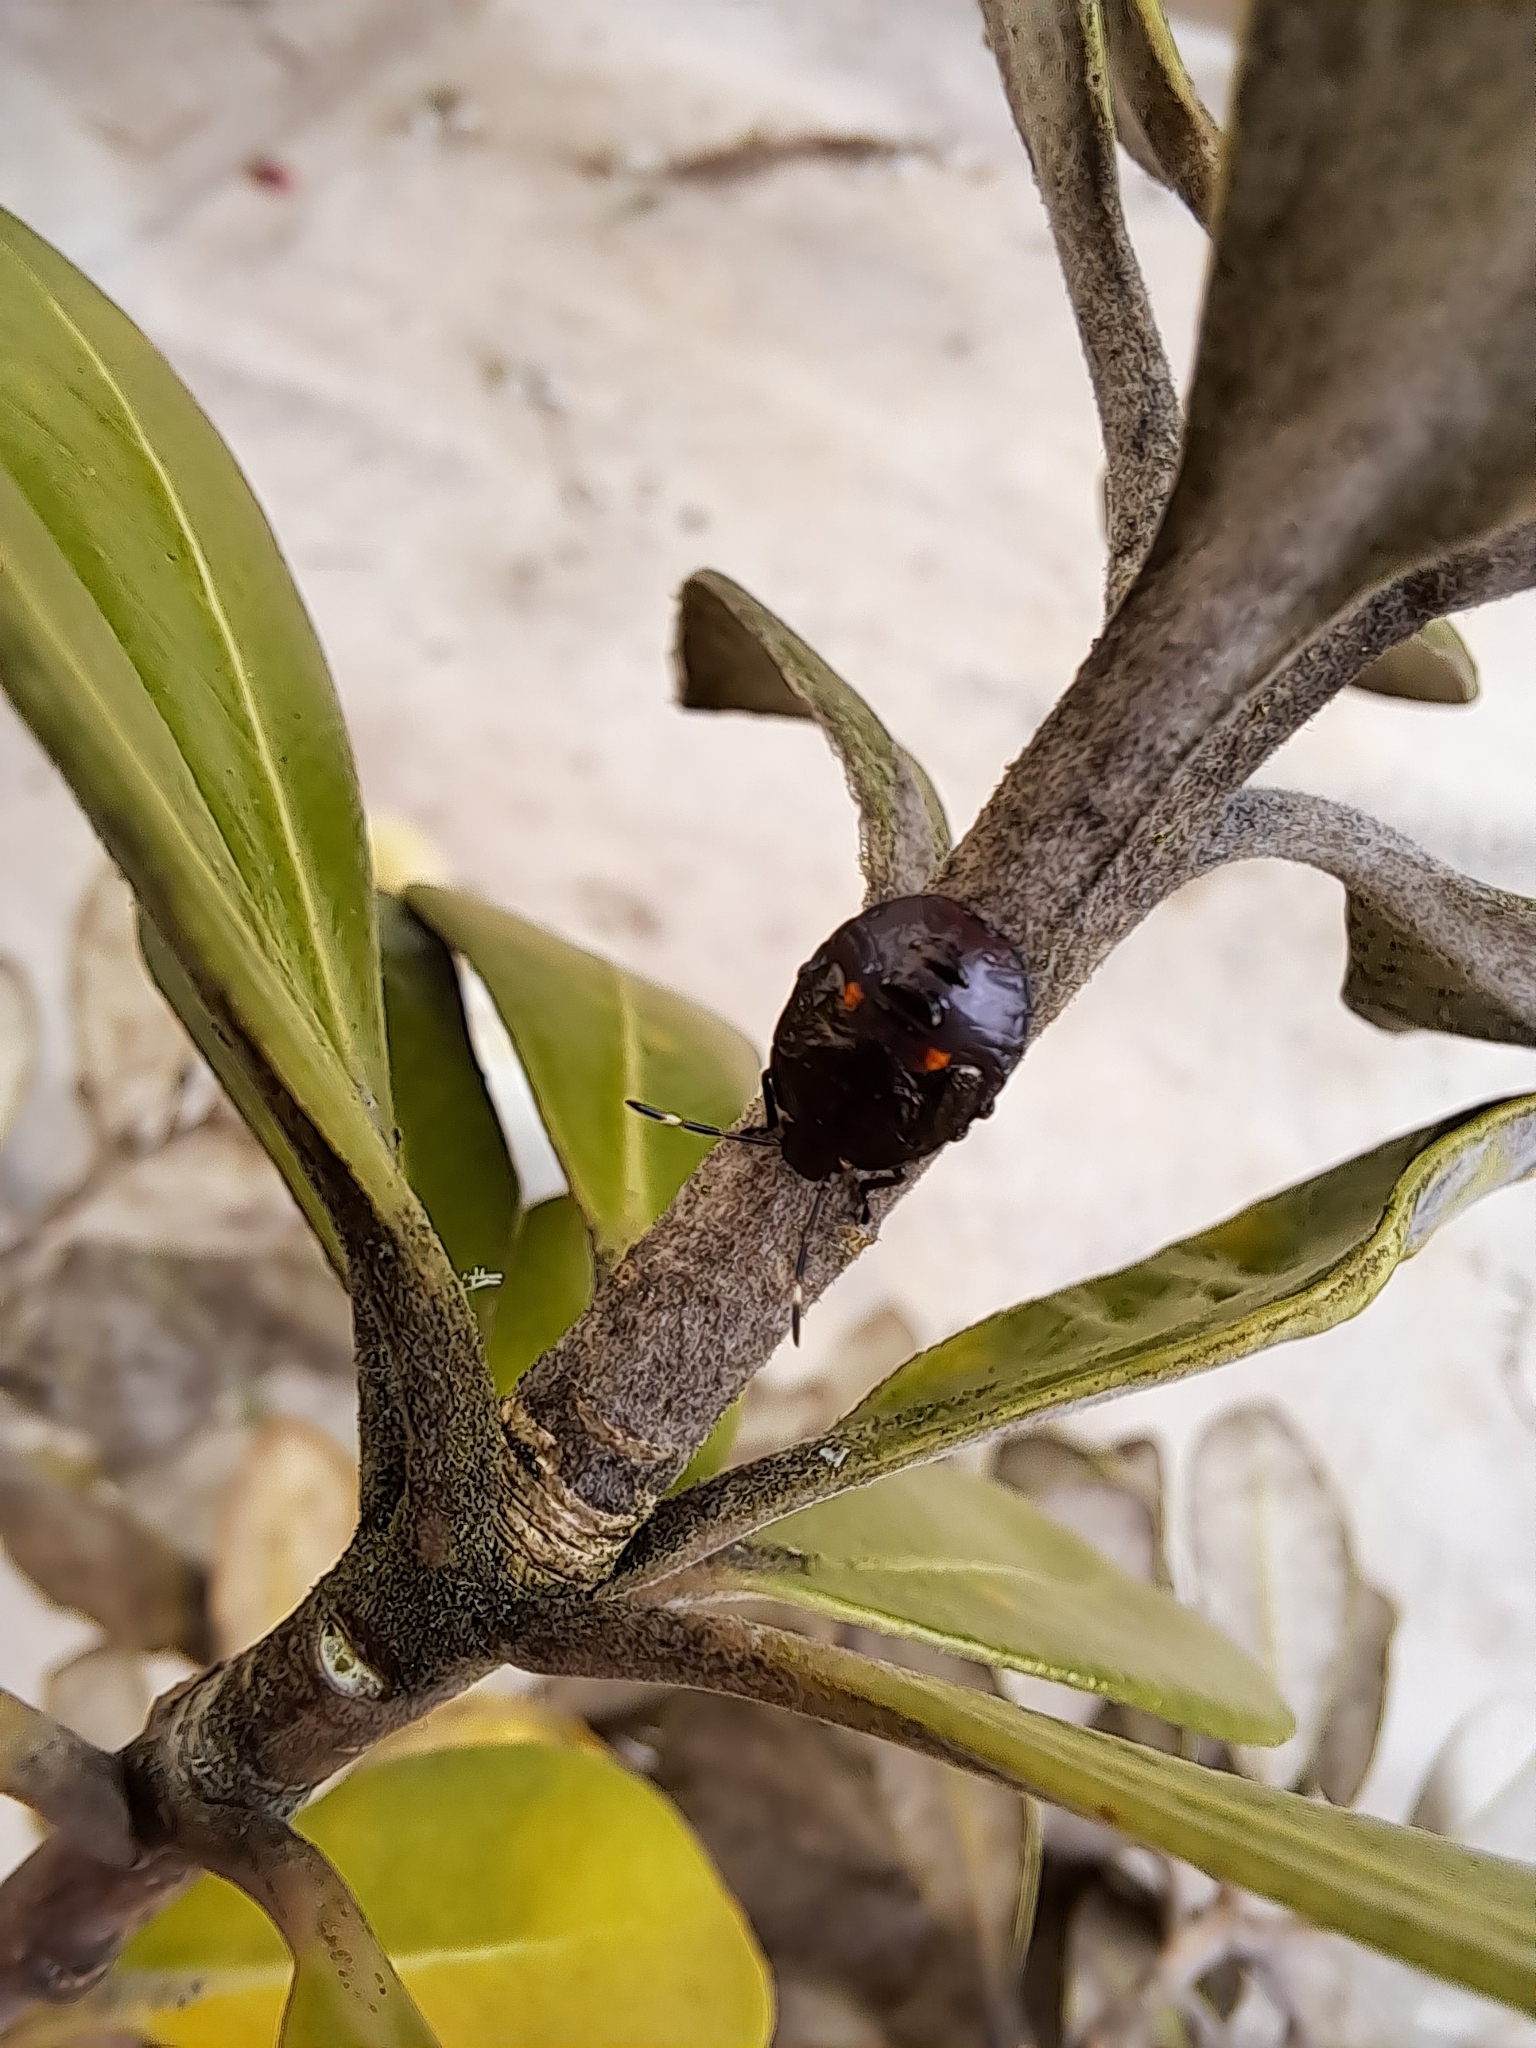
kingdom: Animalia
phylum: Arthropoda
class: Insecta
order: Hemiptera
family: Pentatomidae
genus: Monteithiella
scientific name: Monteithiella
